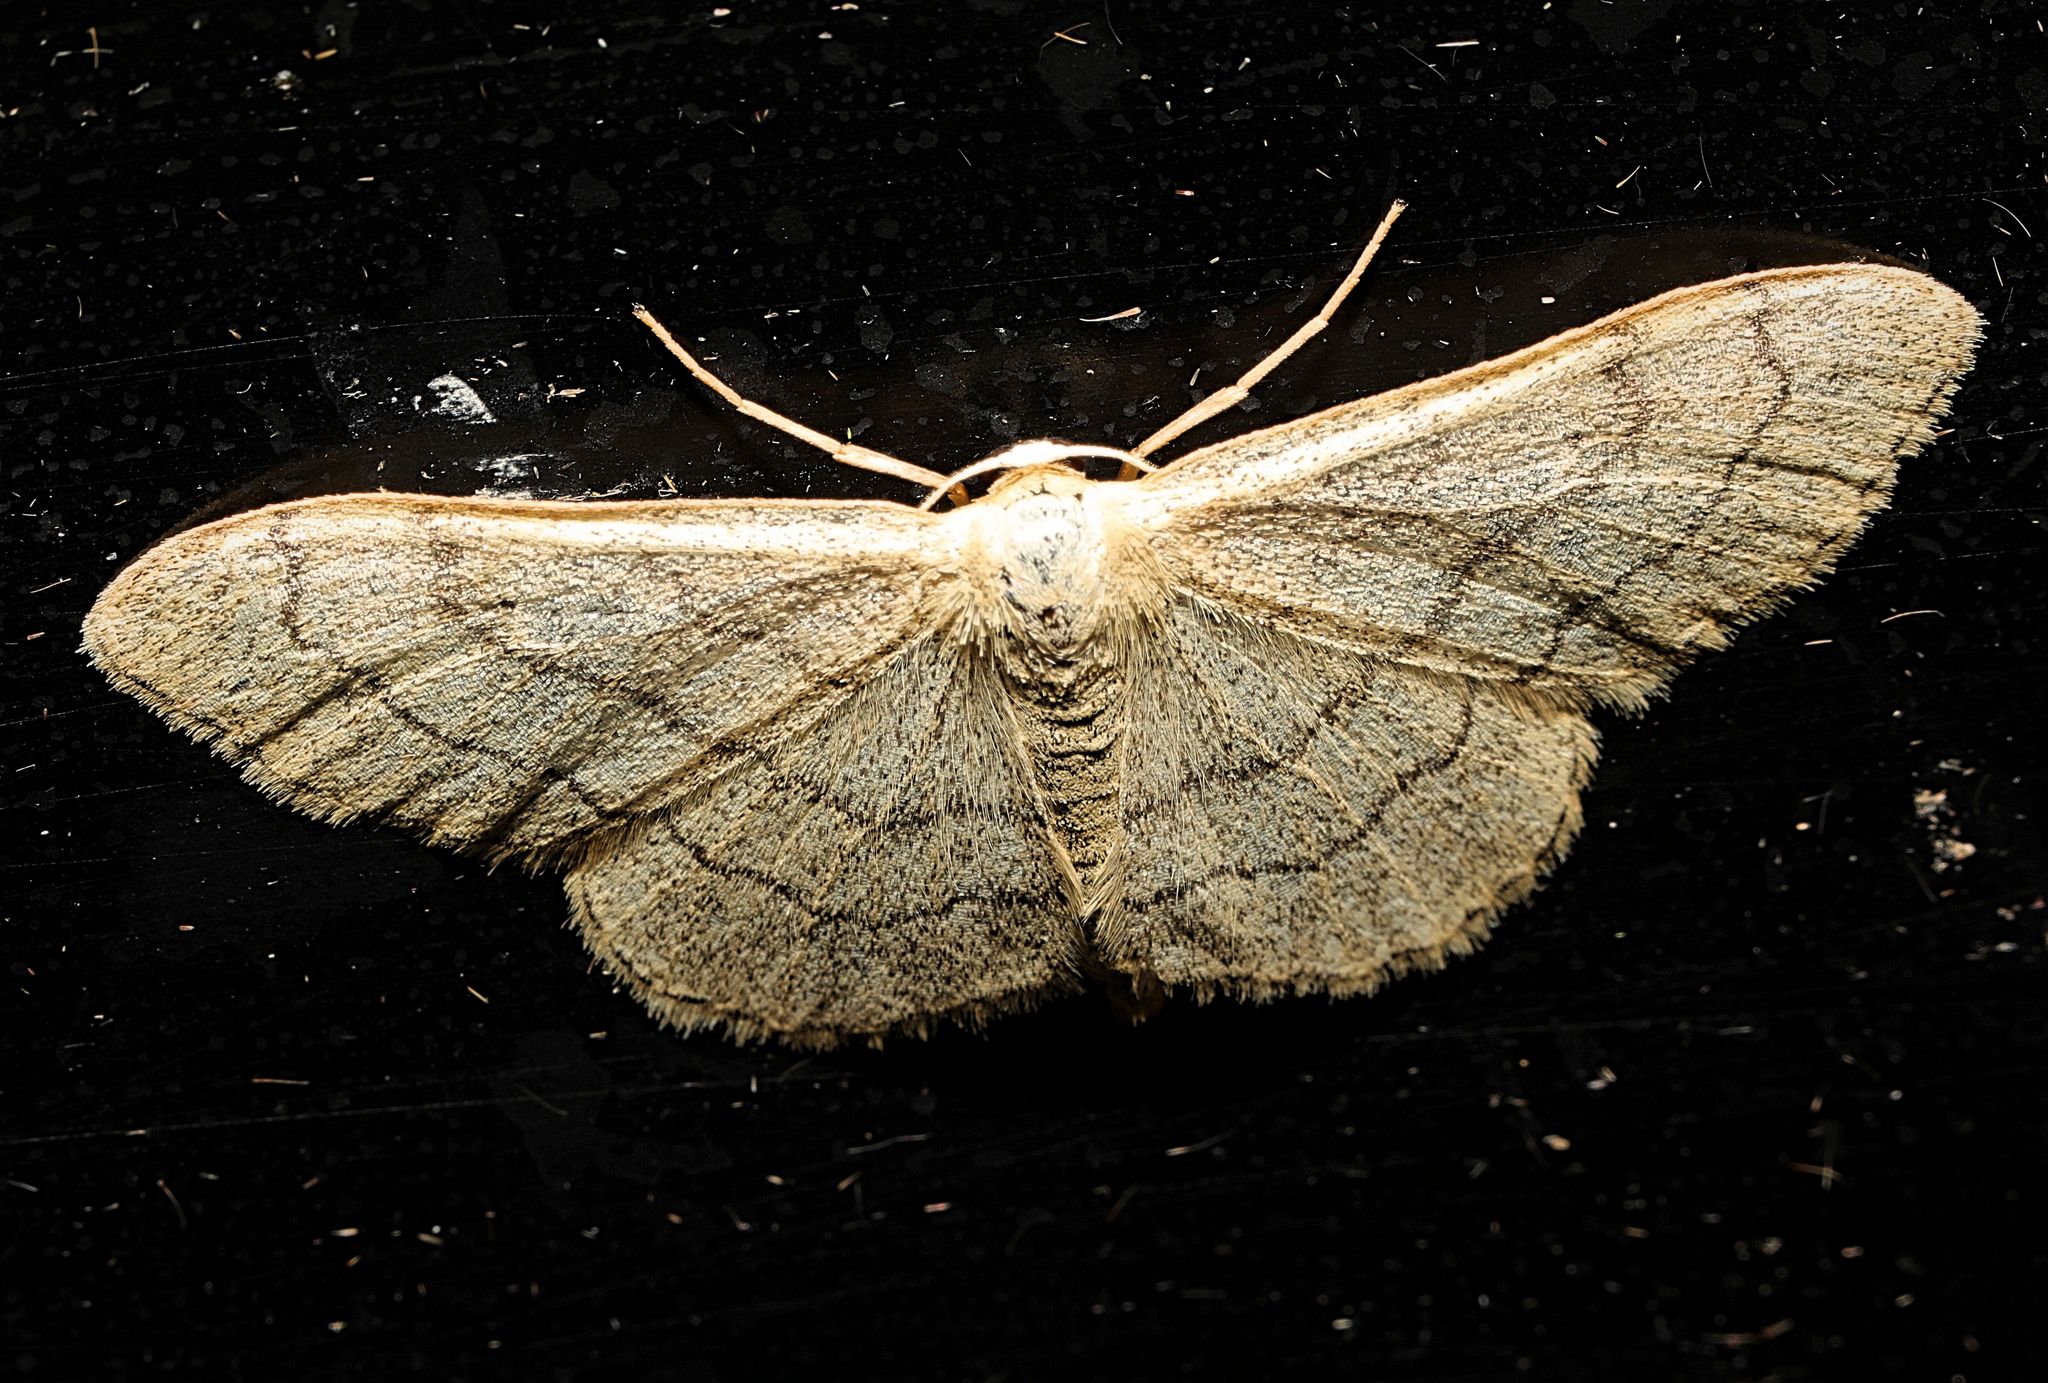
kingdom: Animalia
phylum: Arthropoda
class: Insecta
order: Lepidoptera
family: Geometridae
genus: Idaea
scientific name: Idaea aversata
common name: Riband wave
